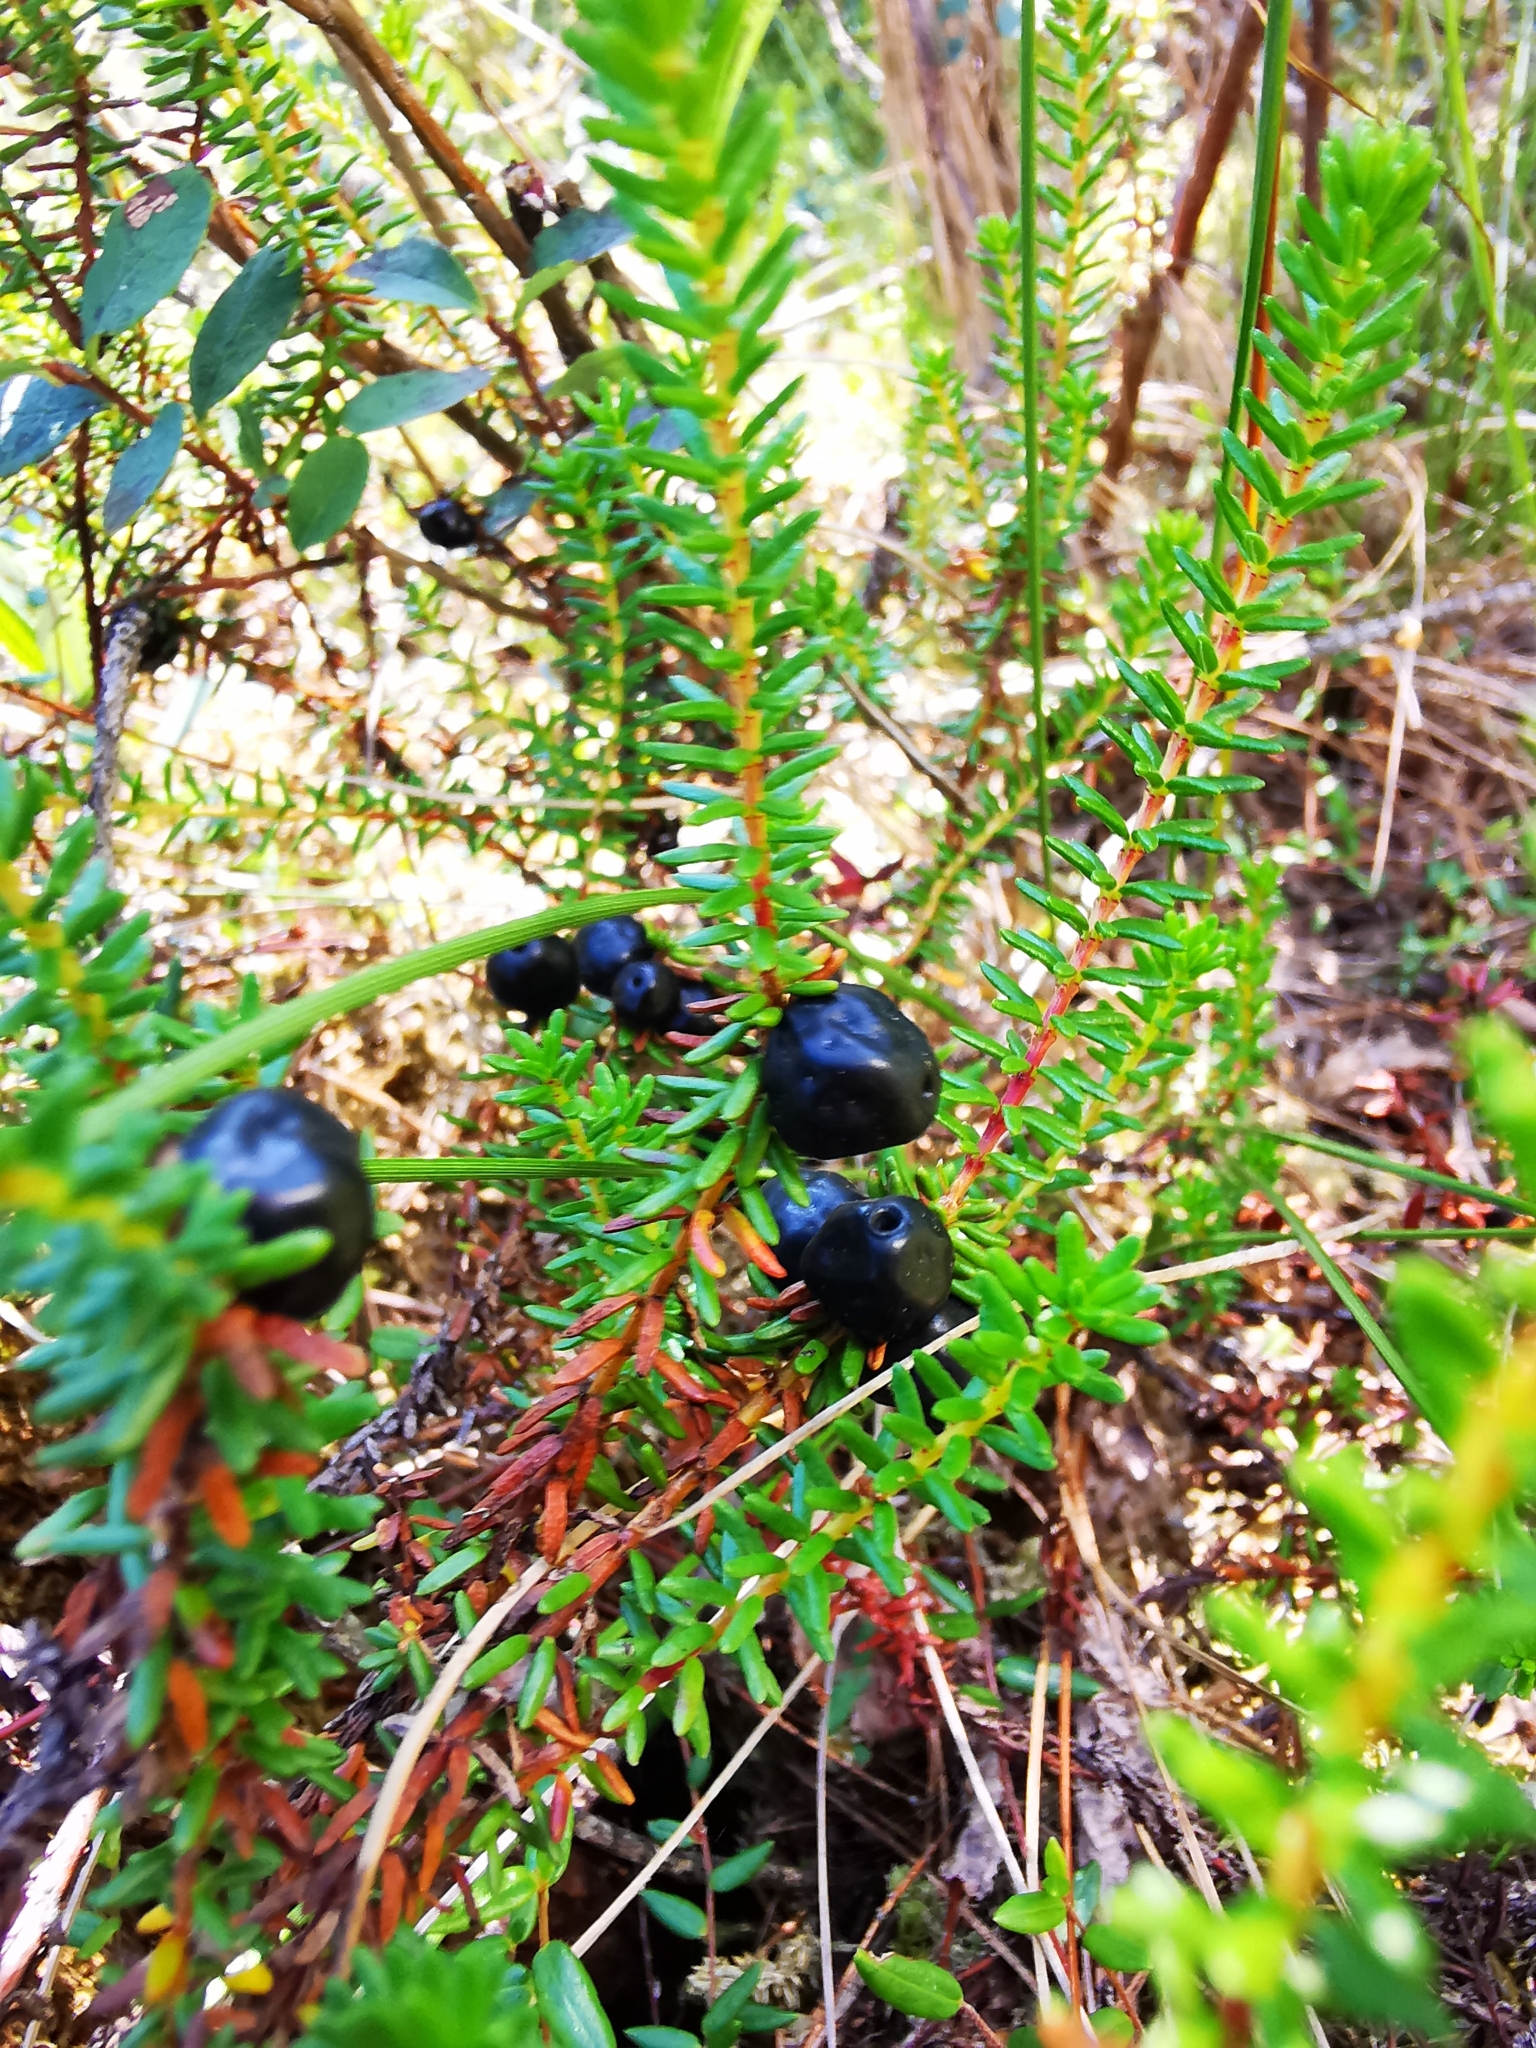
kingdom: Plantae
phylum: Tracheophyta
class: Magnoliopsida
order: Ericales
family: Ericaceae
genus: Empetrum
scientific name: Empetrum nigrum
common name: Black crowberry
